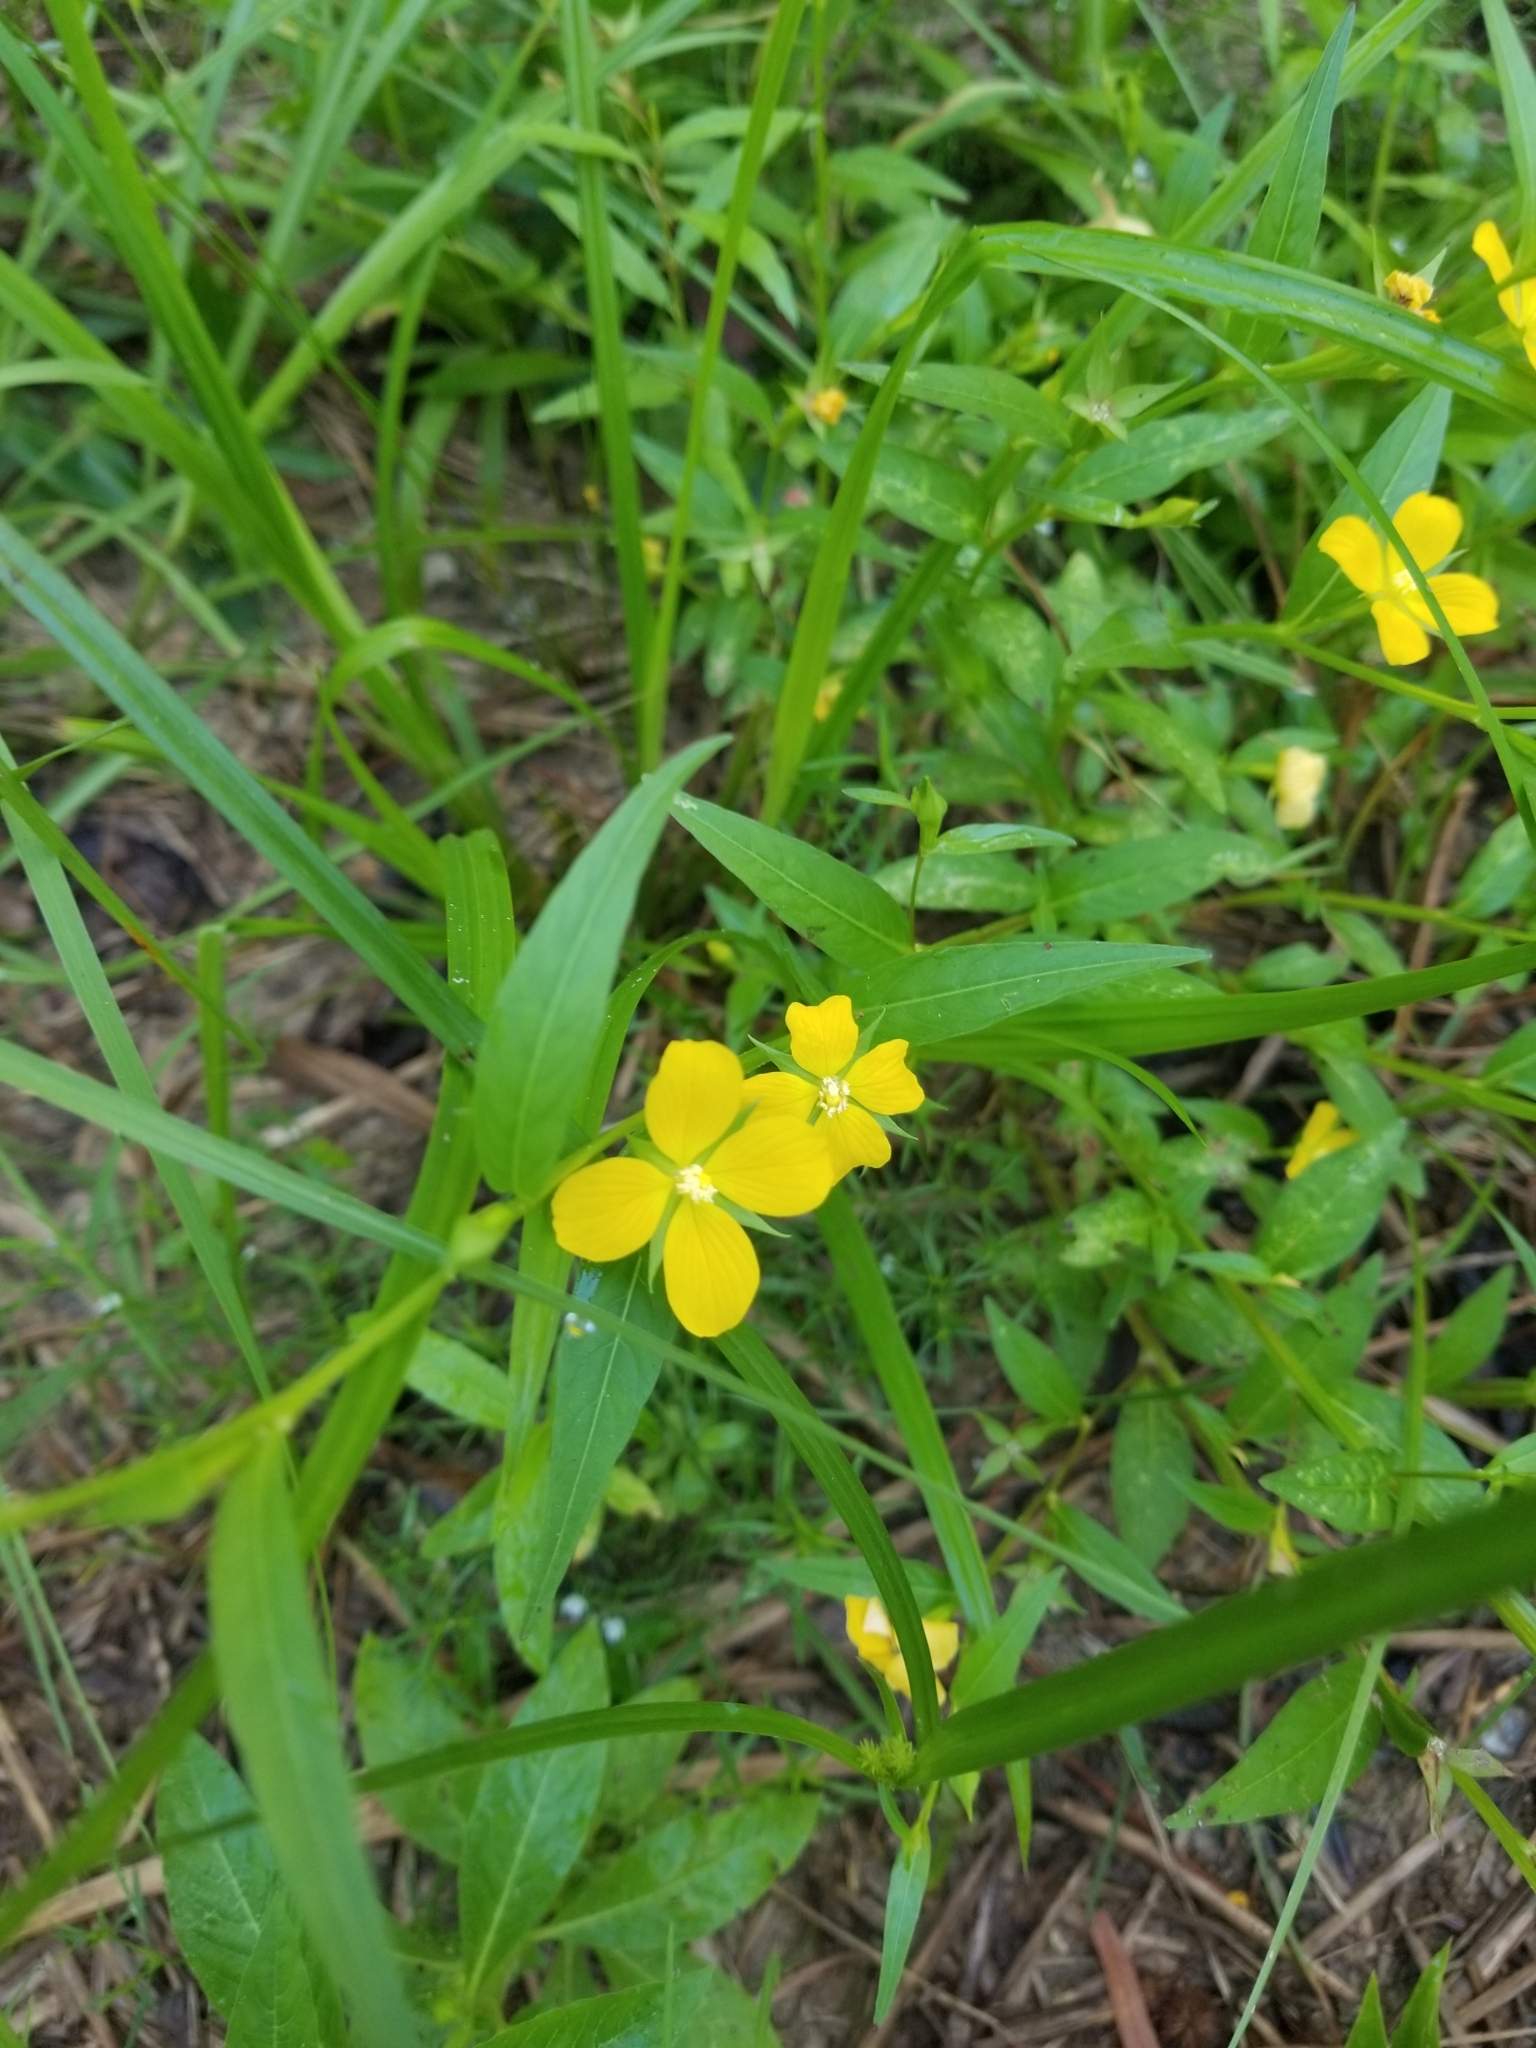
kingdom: Plantae
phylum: Tracheophyta
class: Magnoliopsida
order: Myrtales
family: Onagraceae
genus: Ludwigia
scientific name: Ludwigia decurrens
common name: Winged water-primrose
